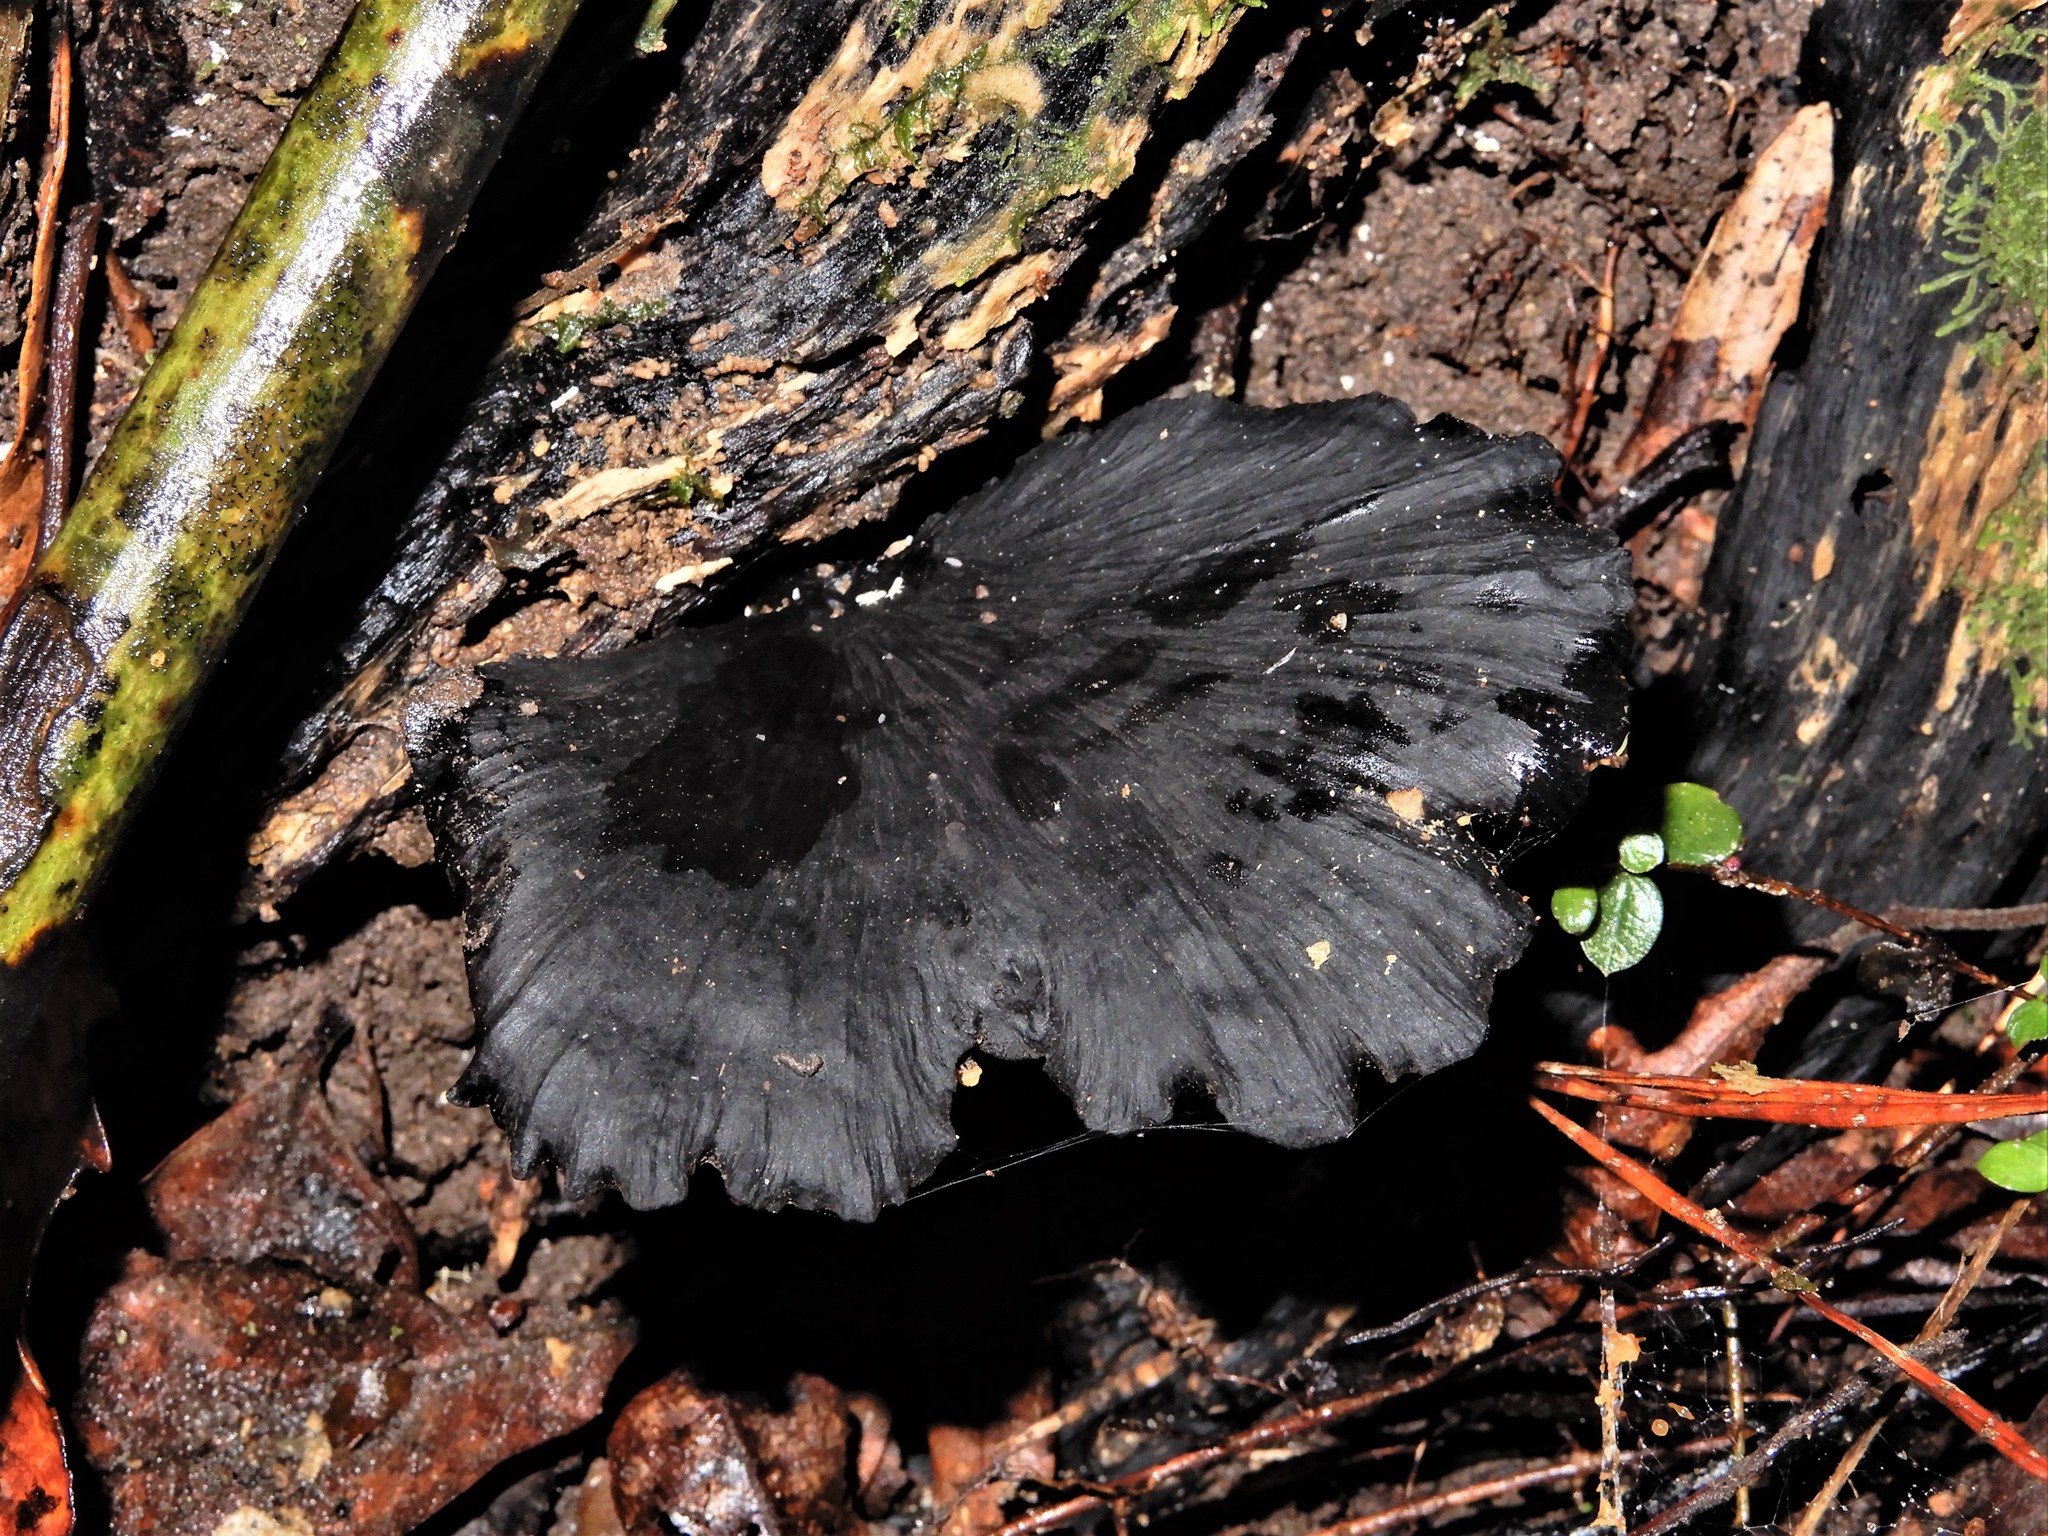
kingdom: Fungi
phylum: Basidiomycota
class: Agaricomycetes
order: Polyporales
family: Polyporaceae
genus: Picipes
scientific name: Picipes dictyopus
